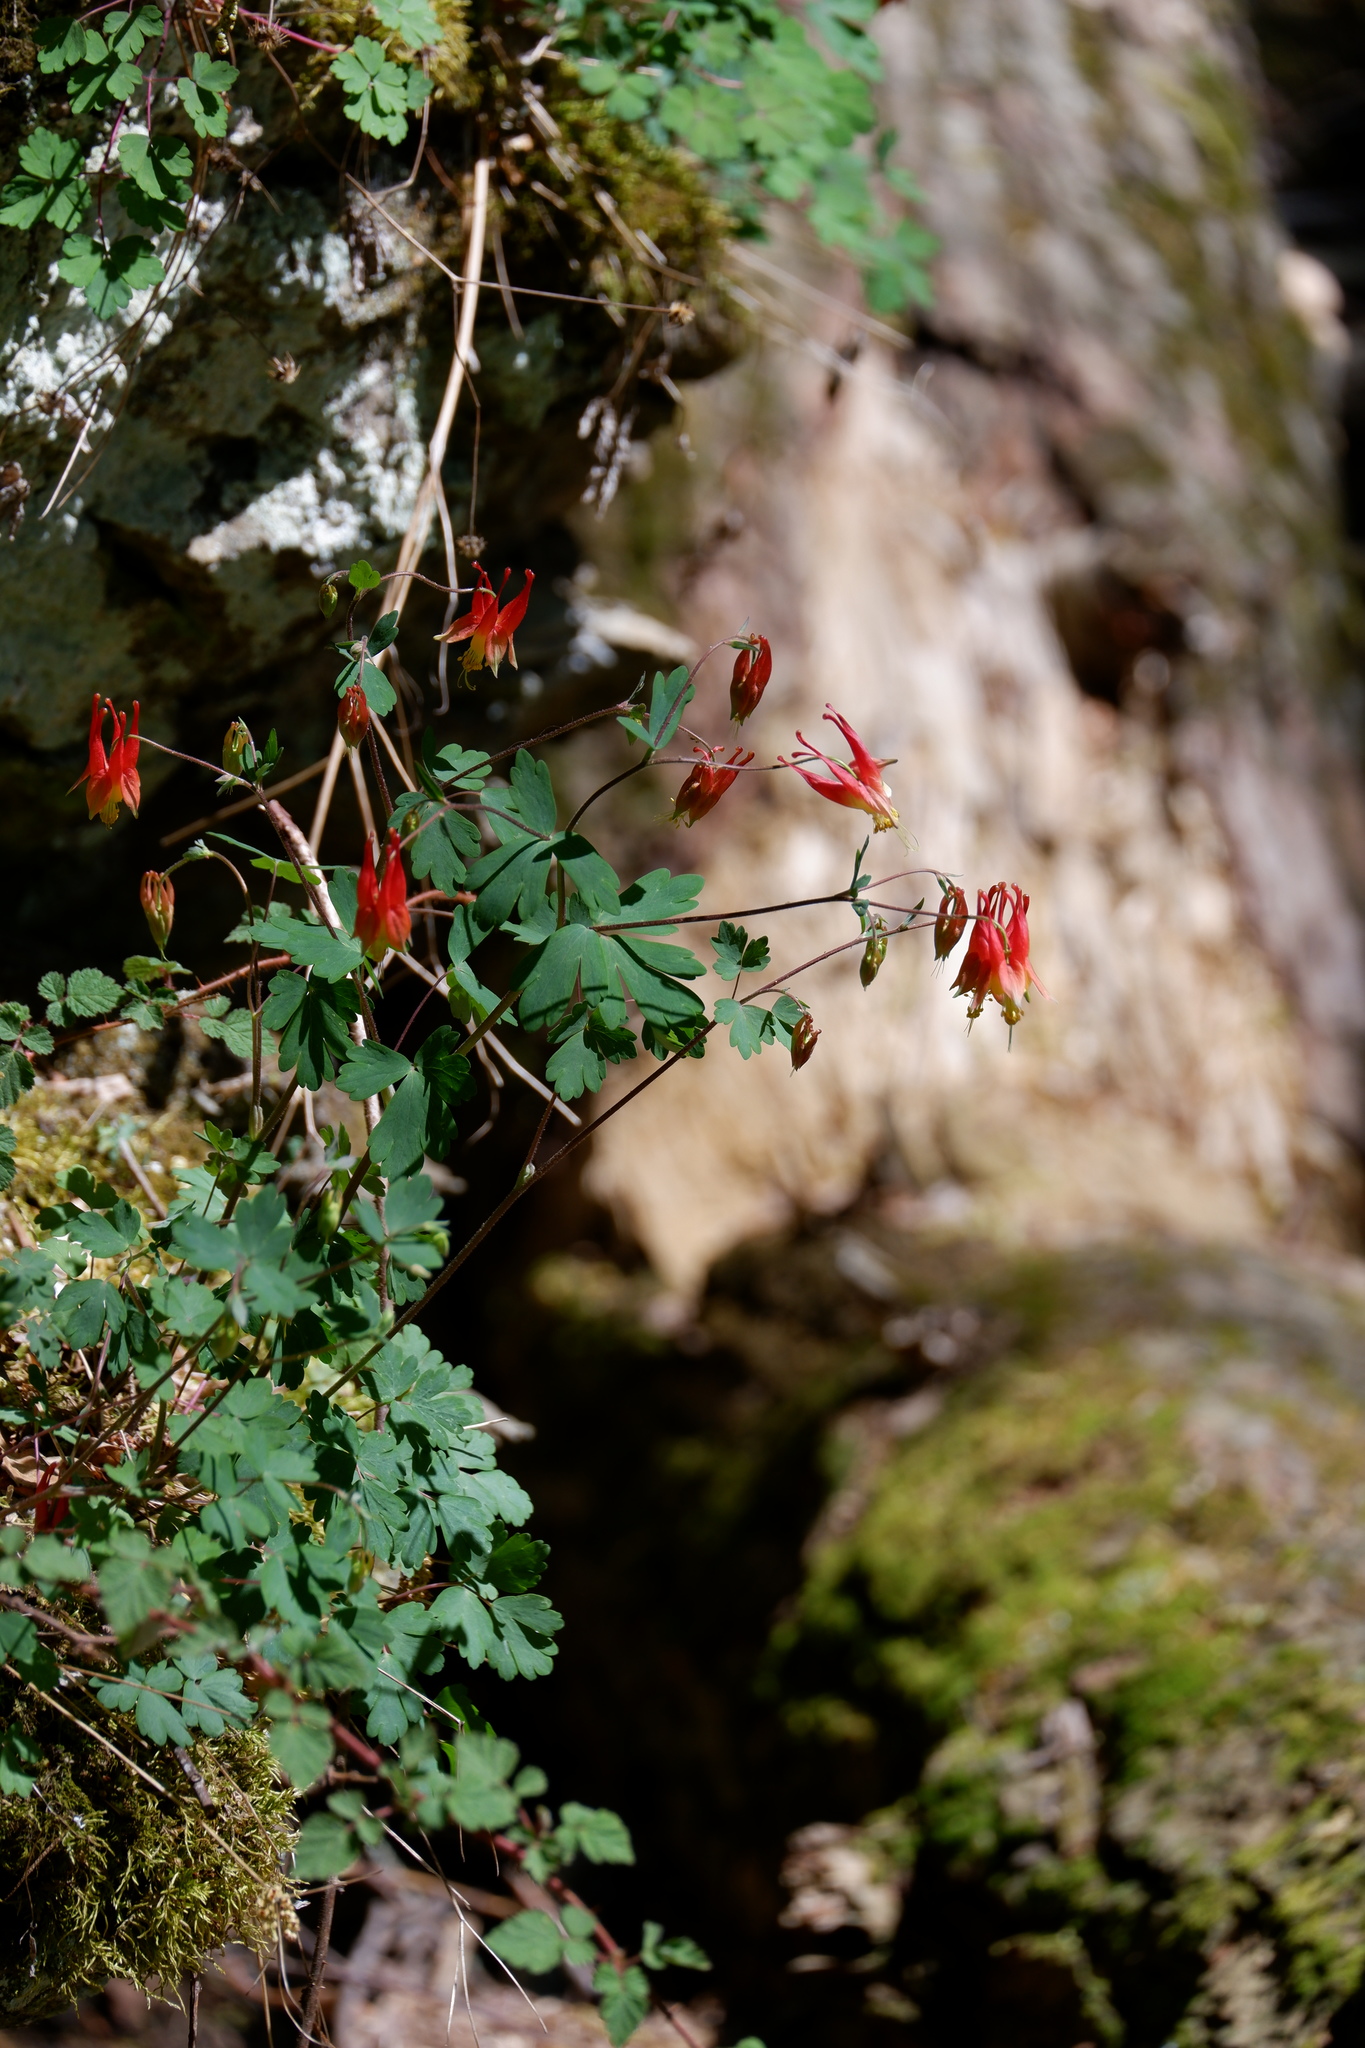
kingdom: Plantae
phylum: Tracheophyta
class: Magnoliopsida
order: Ranunculales
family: Ranunculaceae
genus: Aquilegia
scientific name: Aquilegia canadensis
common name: American columbine
